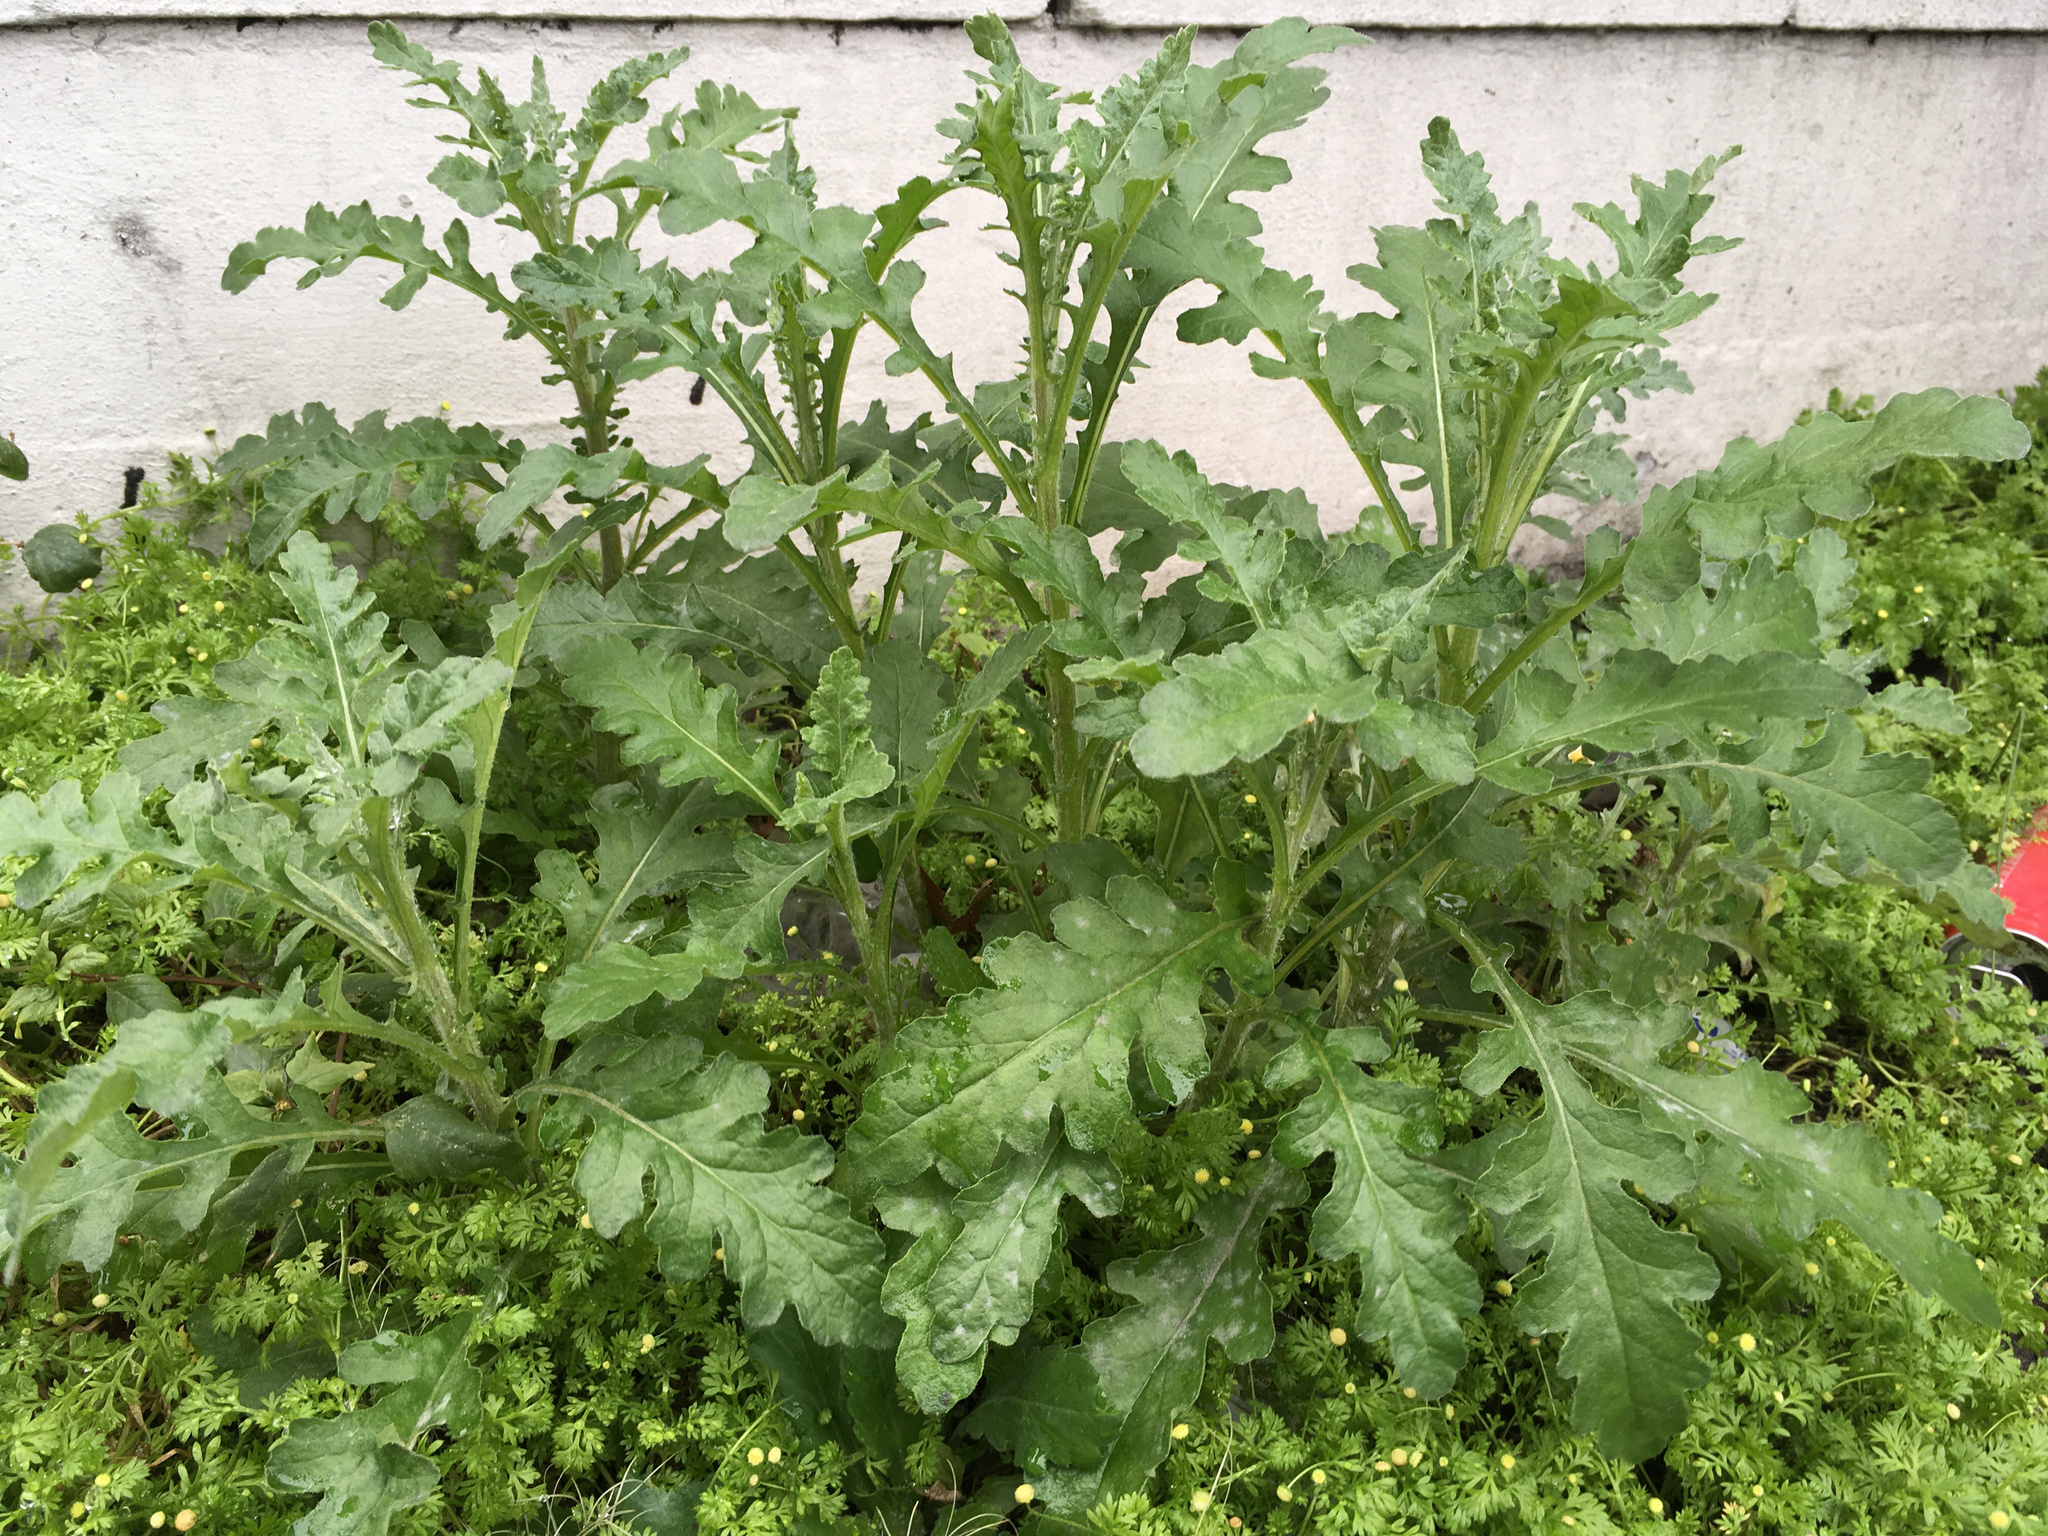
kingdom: Plantae
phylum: Tracheophyta
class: Magnoliopsida
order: Asterales
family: Asteraceae
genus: Senecio
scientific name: Senecio glomeratus
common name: Cutleaf burnweed
